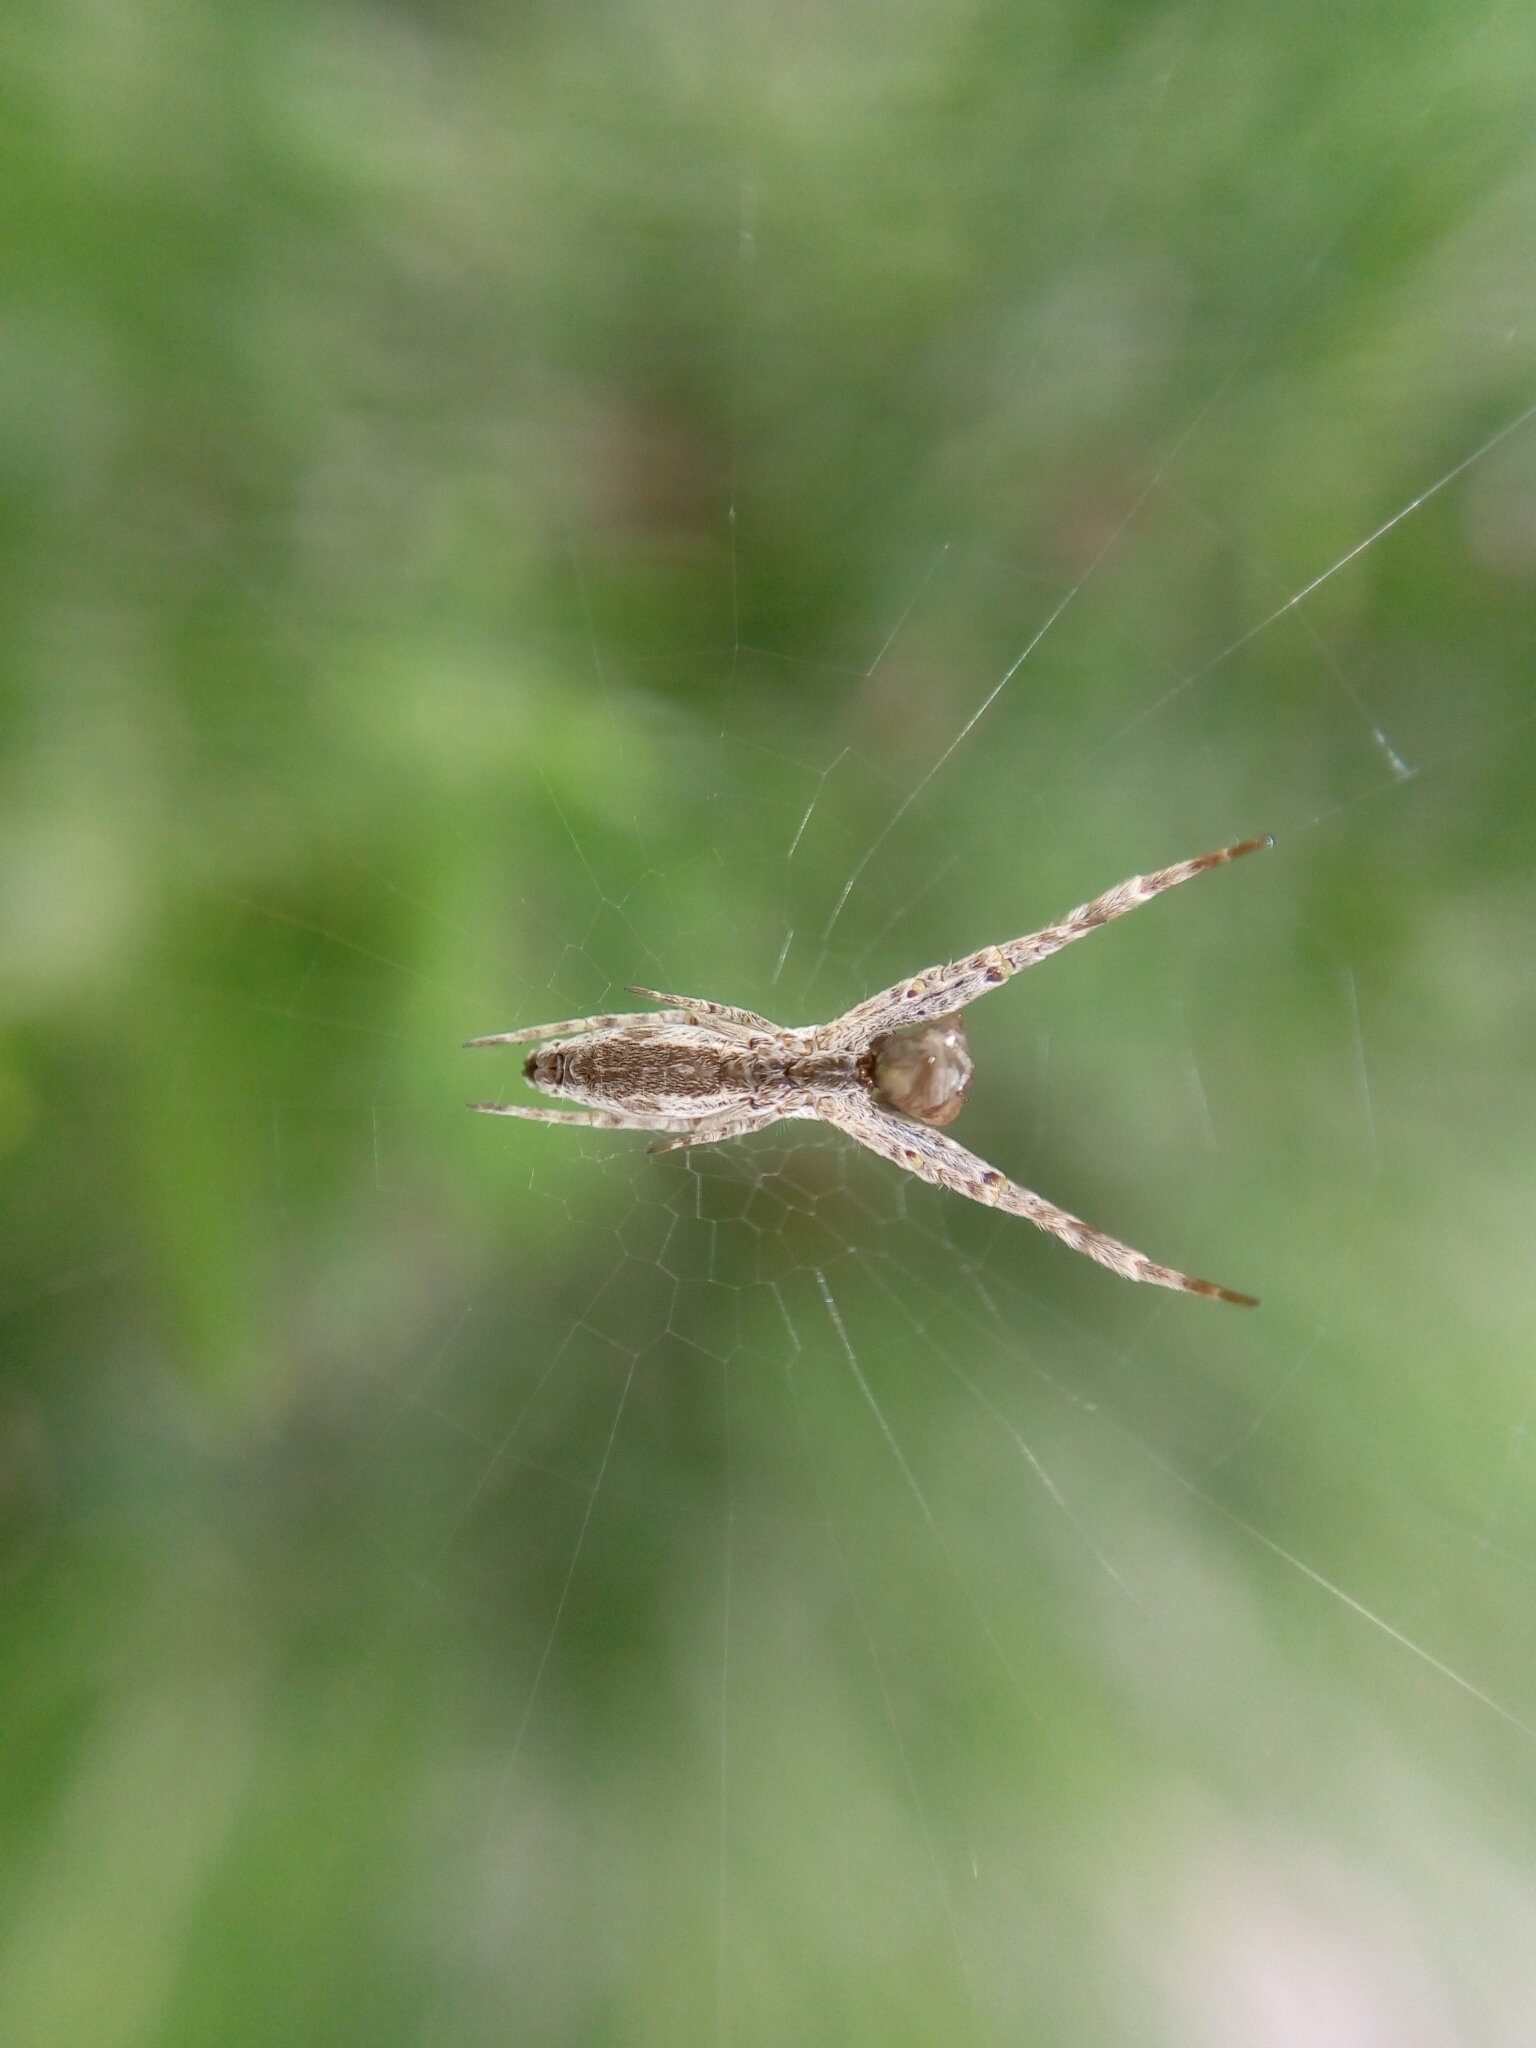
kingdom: Animalia
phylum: Arthropoda
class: Arachnida
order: Araneae
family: Uloboridae
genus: Uloborus
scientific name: Uloborus walckenaerius
